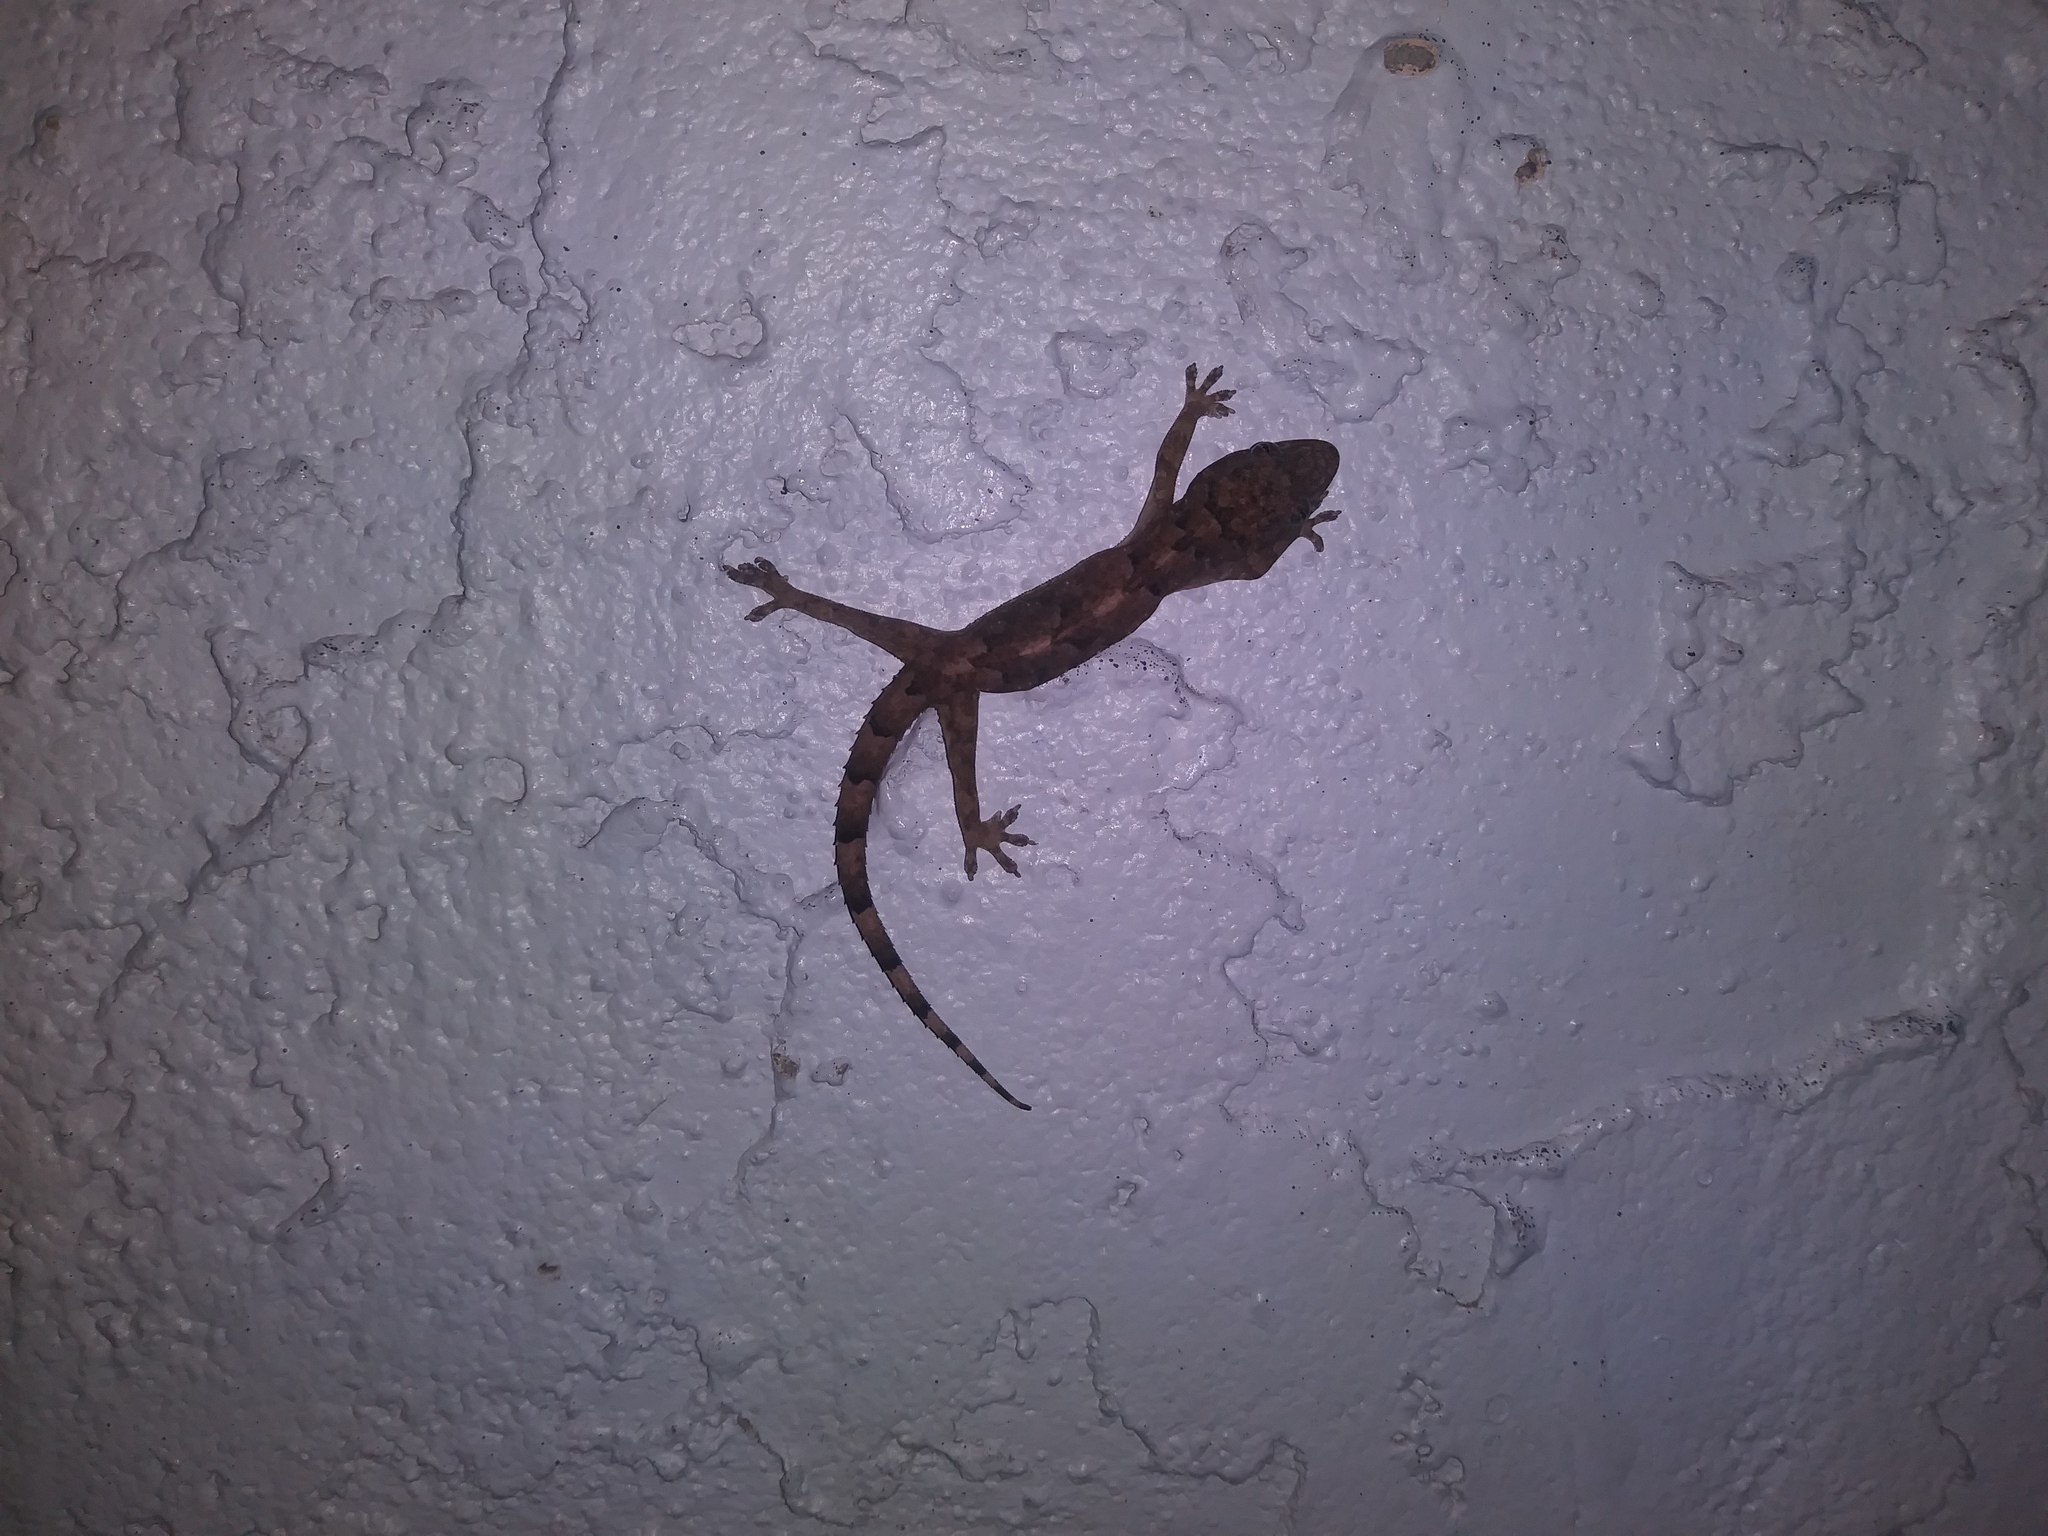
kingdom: Animalia
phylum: Chordata
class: Squamata
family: Gekkonidae
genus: Hemidactylus
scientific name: Hemidactylus mabouia
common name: House gecko
